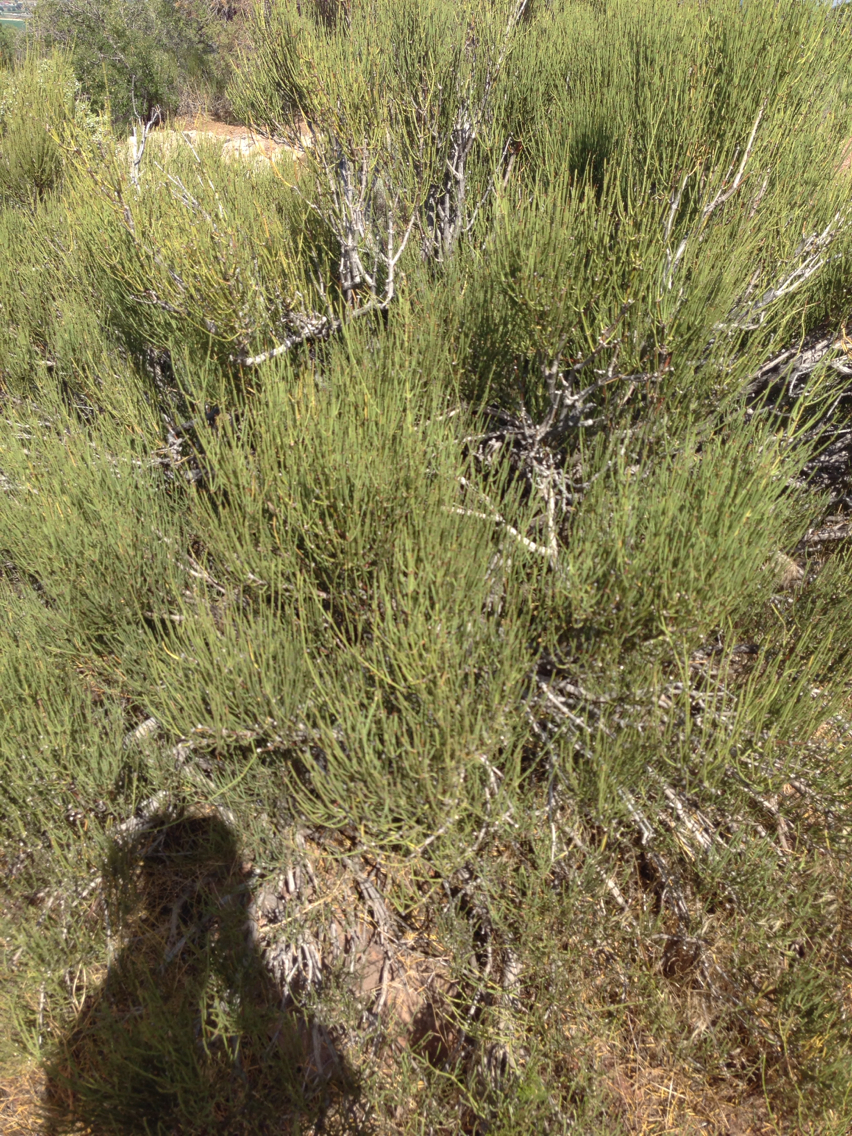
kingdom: Plantae
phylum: Tracheophyta
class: Gnetopsida
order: Ephedrales
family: Ephedraceae
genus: Ephedra
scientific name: Ephedra viridis
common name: Green ephedra
